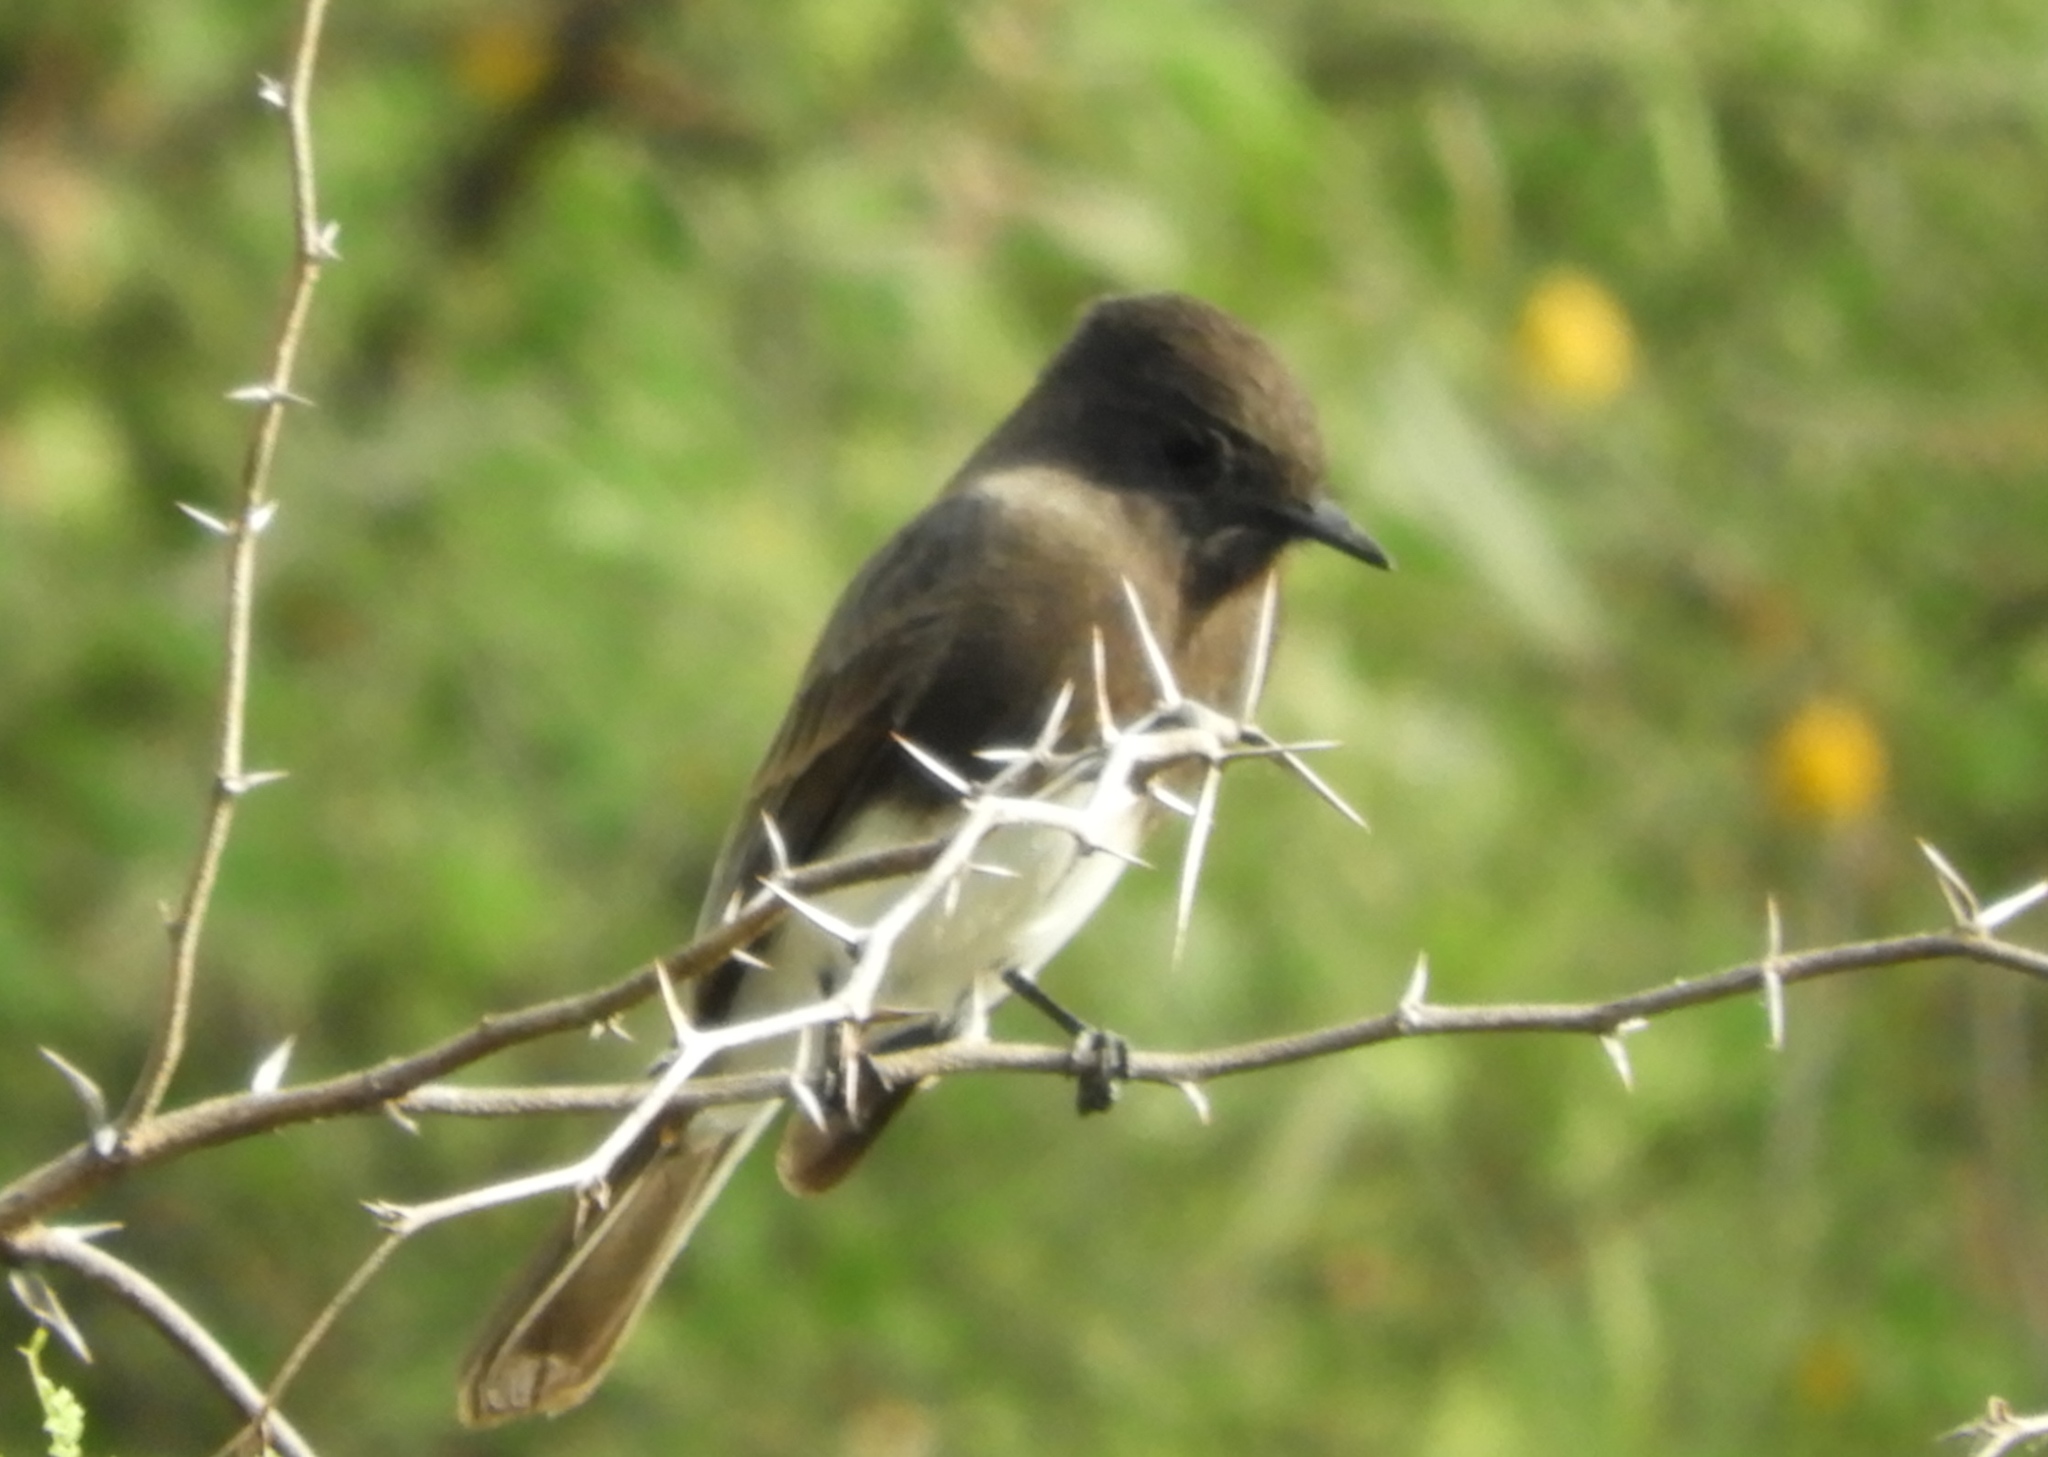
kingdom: Animalia
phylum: Chordata
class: Aves
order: Passeriformes
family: Tyrannidae
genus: Sayornis
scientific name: Sayornis nigricans
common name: Black phoebe
